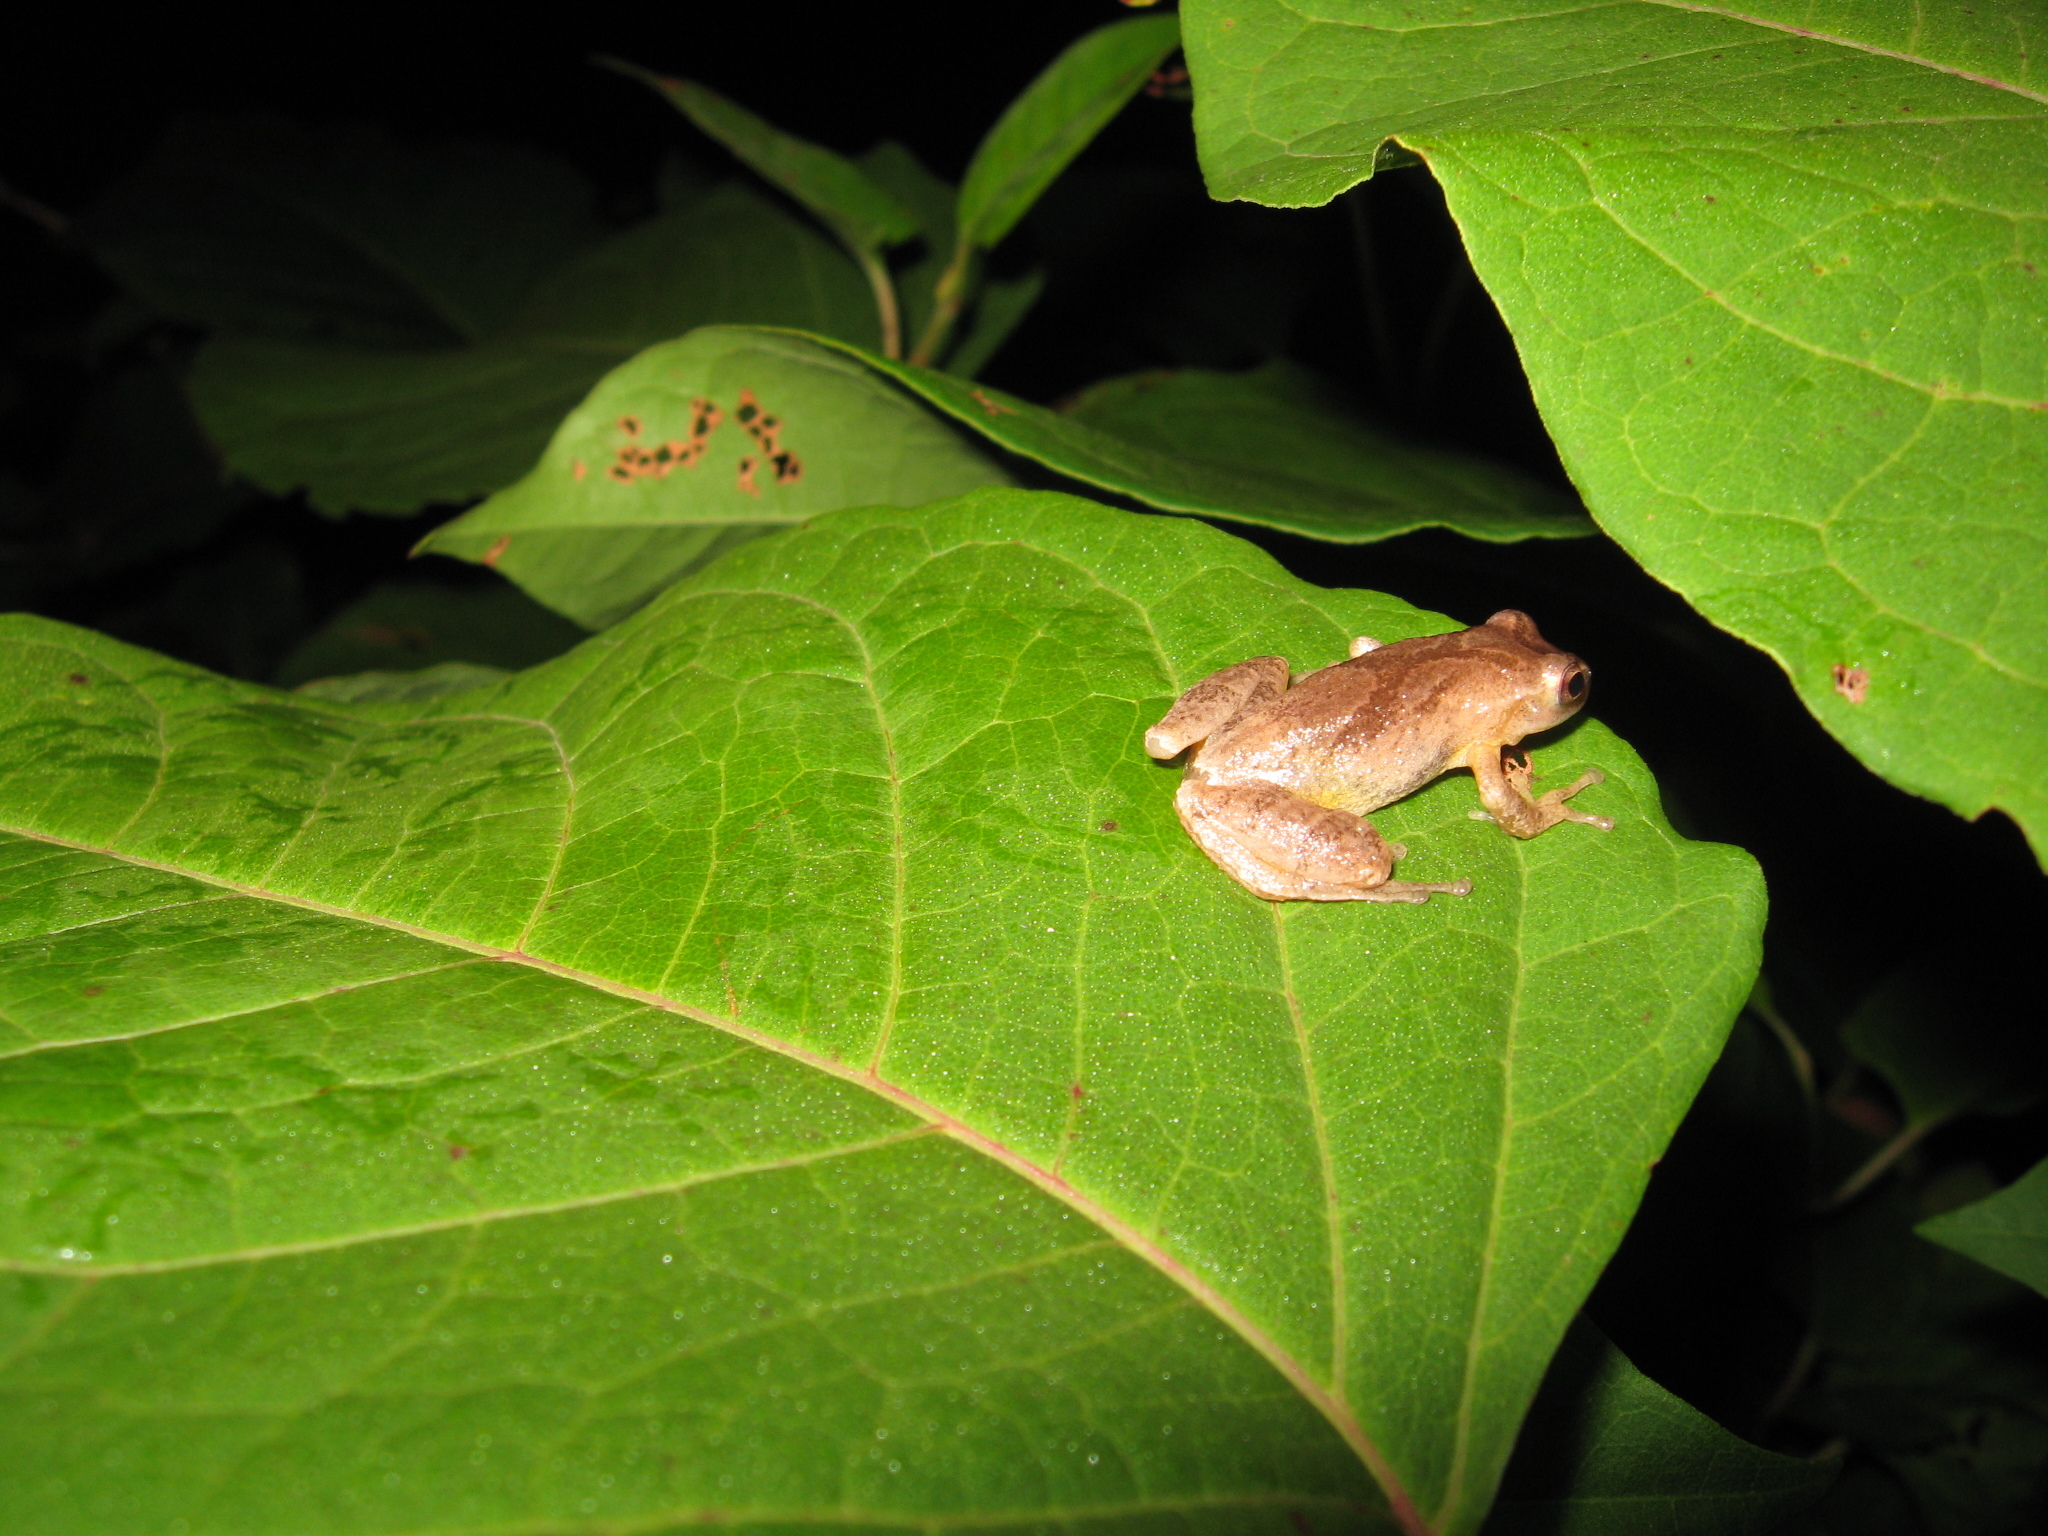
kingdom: Animalia
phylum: Chordata
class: Amphibia
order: Anura
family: Hylidae
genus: Pseudacris
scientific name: Pseudacris crucifer
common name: Spring peeper
